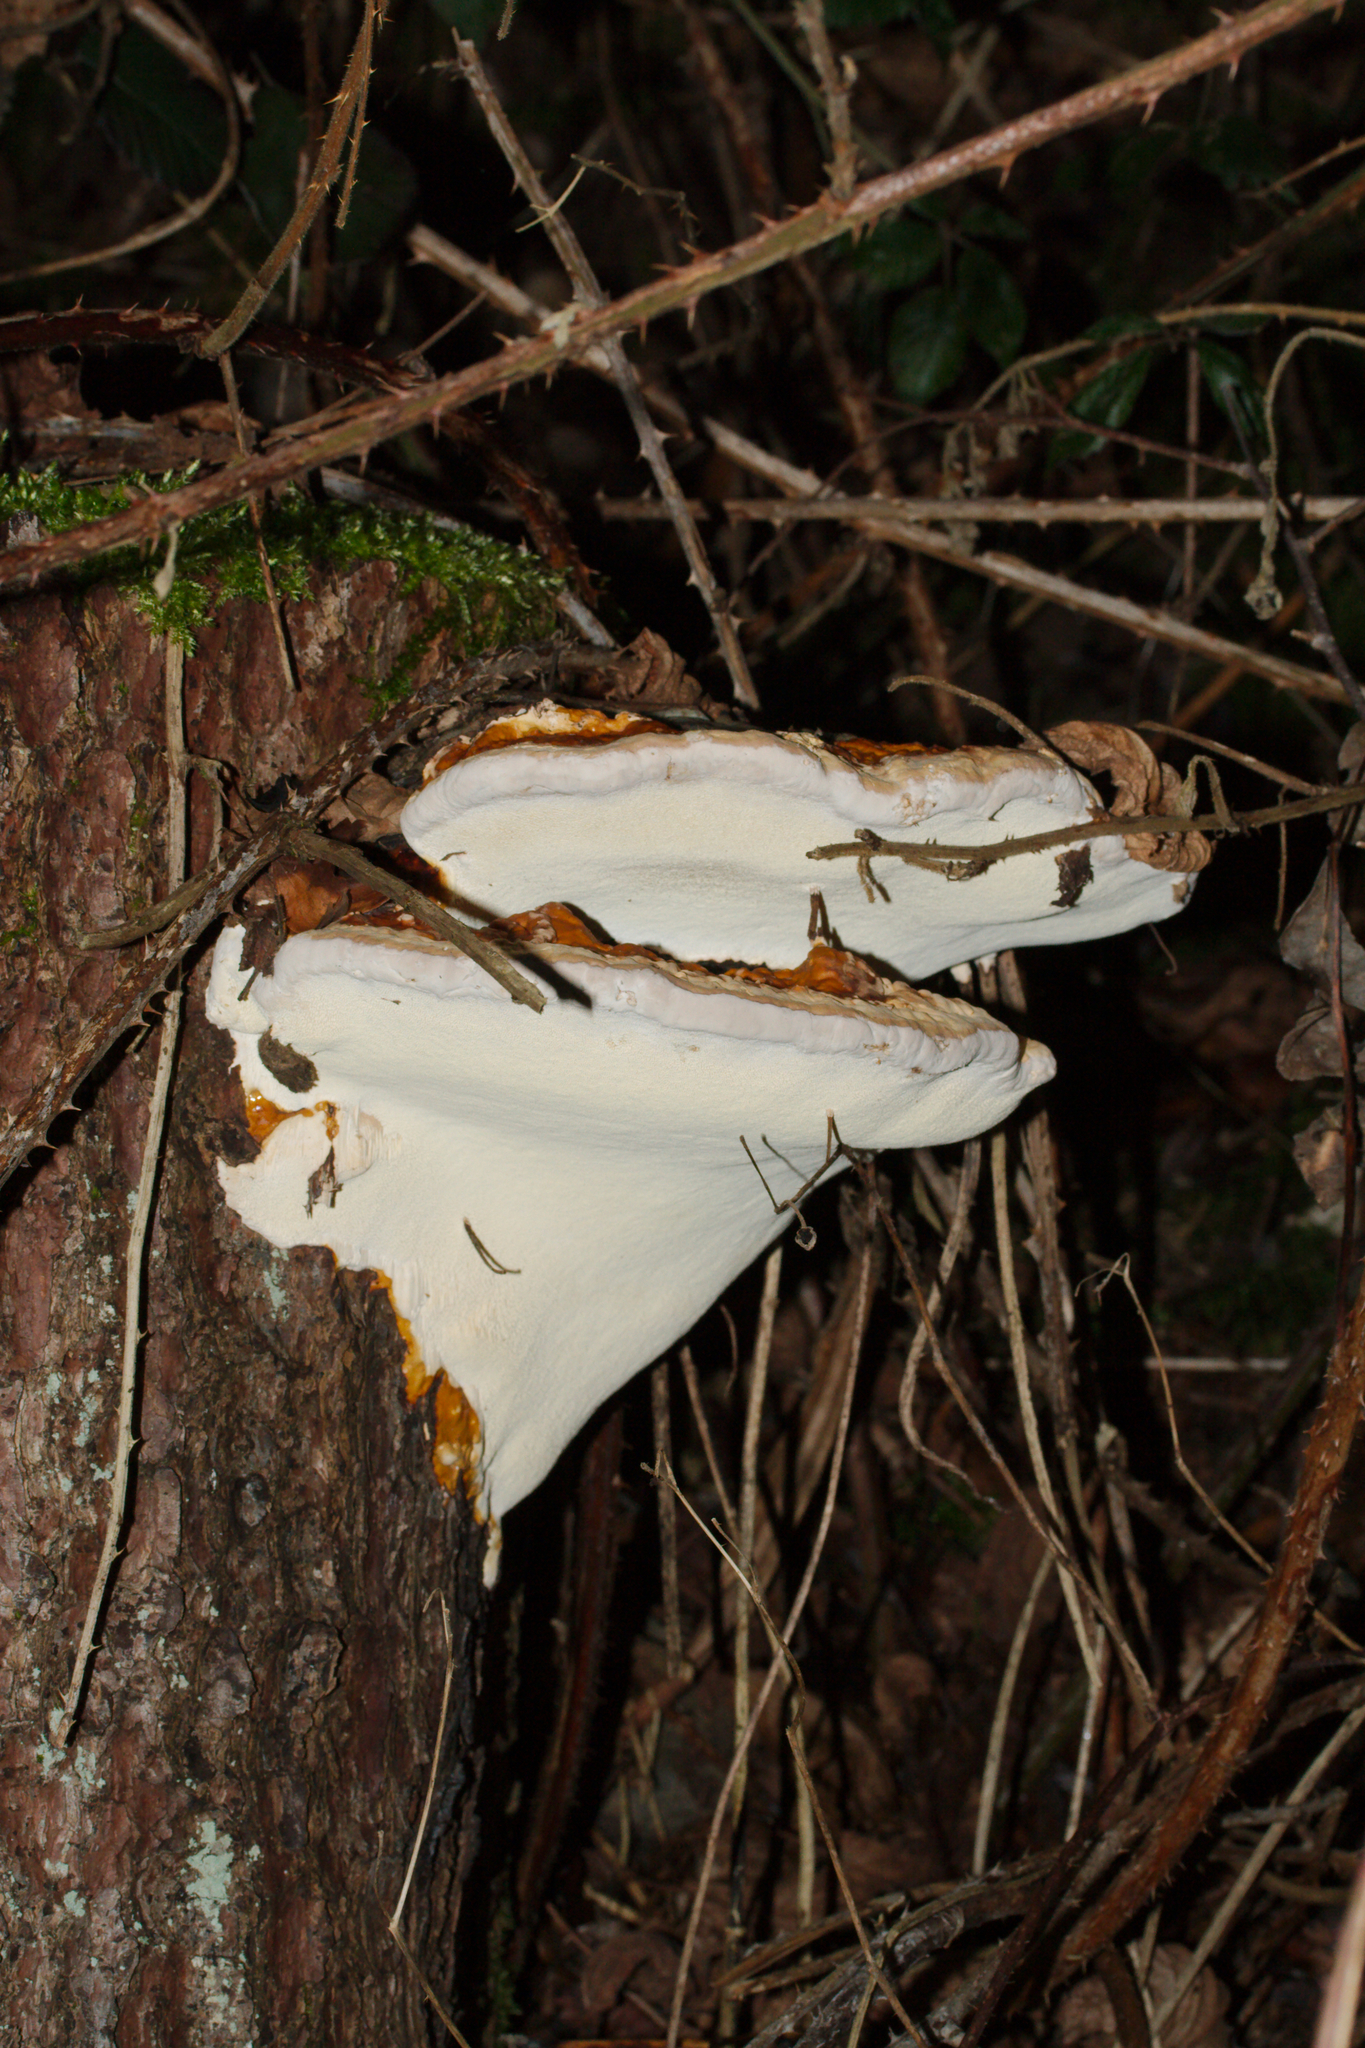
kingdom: Fungi
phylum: Basidiomycota
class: Agaricomycetes
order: Polyporales
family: Fomitopsidaceae
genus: Fomitopsis
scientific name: Fomitopsis pinicola
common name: Red-belted bracket
